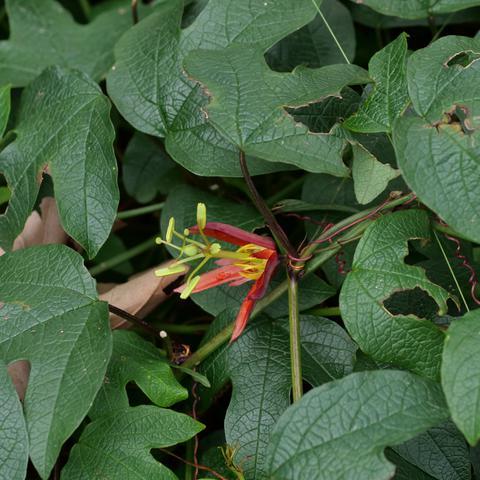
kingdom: Plantae
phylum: Tracheophyta
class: Magnoliopsida
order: Malpighiales
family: Passifloraceae
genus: Passiflora
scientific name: Passiflora cinnabarina
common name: Red passionflower
